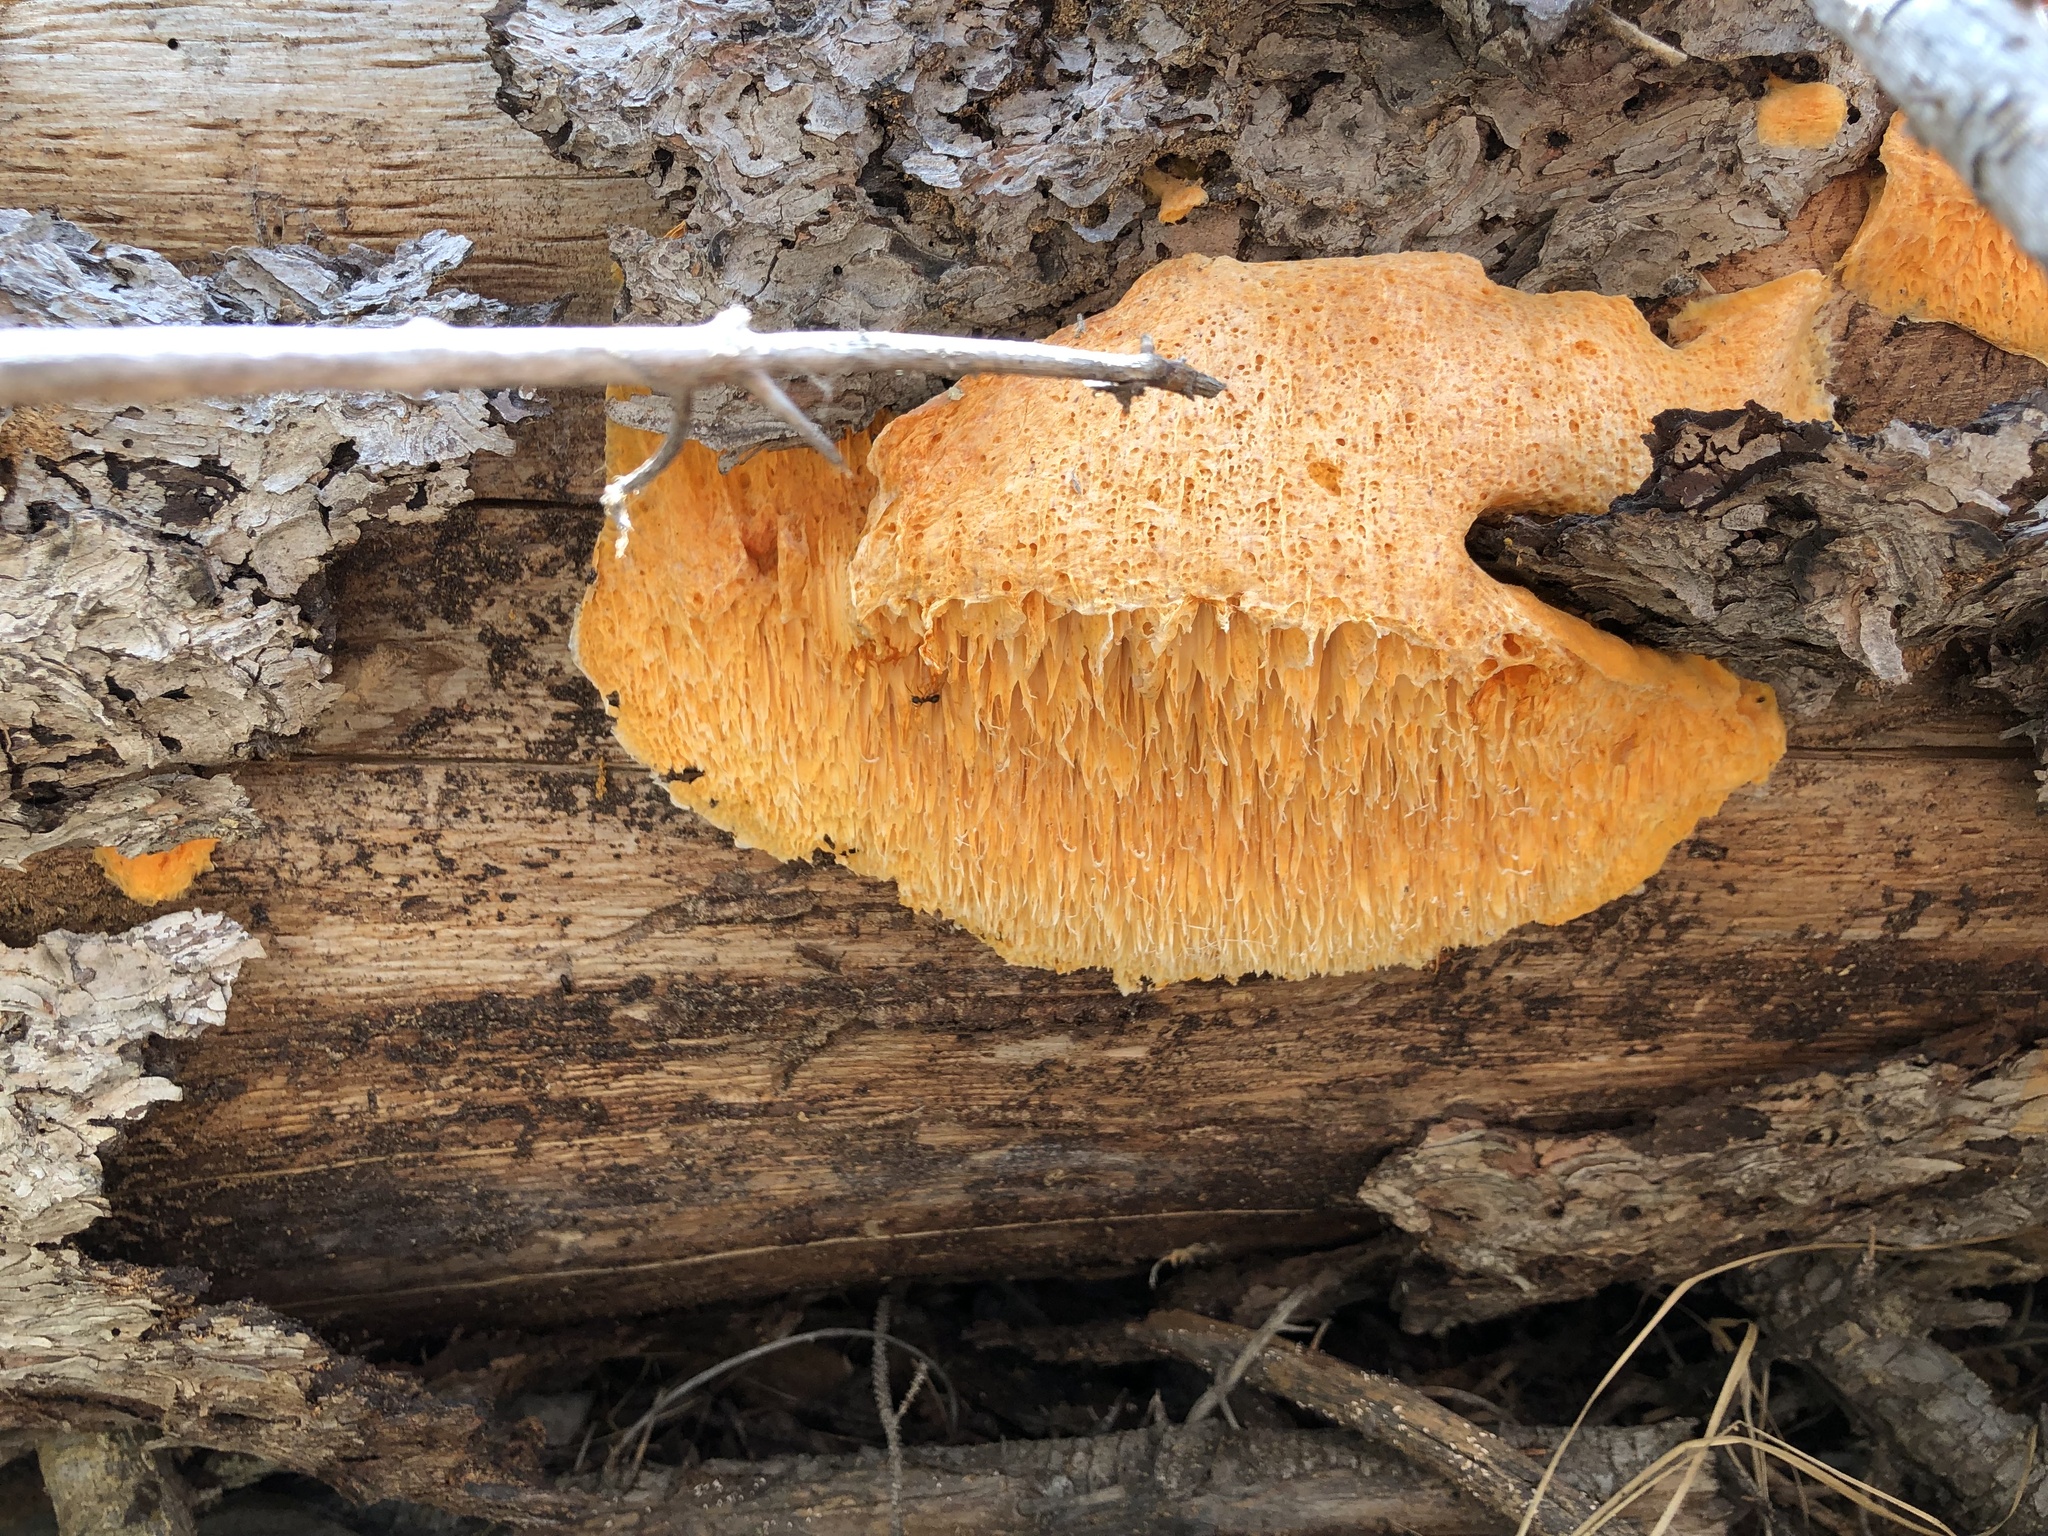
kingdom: Fungi
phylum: Basidiomycota
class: Agaricomycetes
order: Polyporales
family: Pycnoporellaceae
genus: Pycnoporellus
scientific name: Pycnoporellus alboluteus
